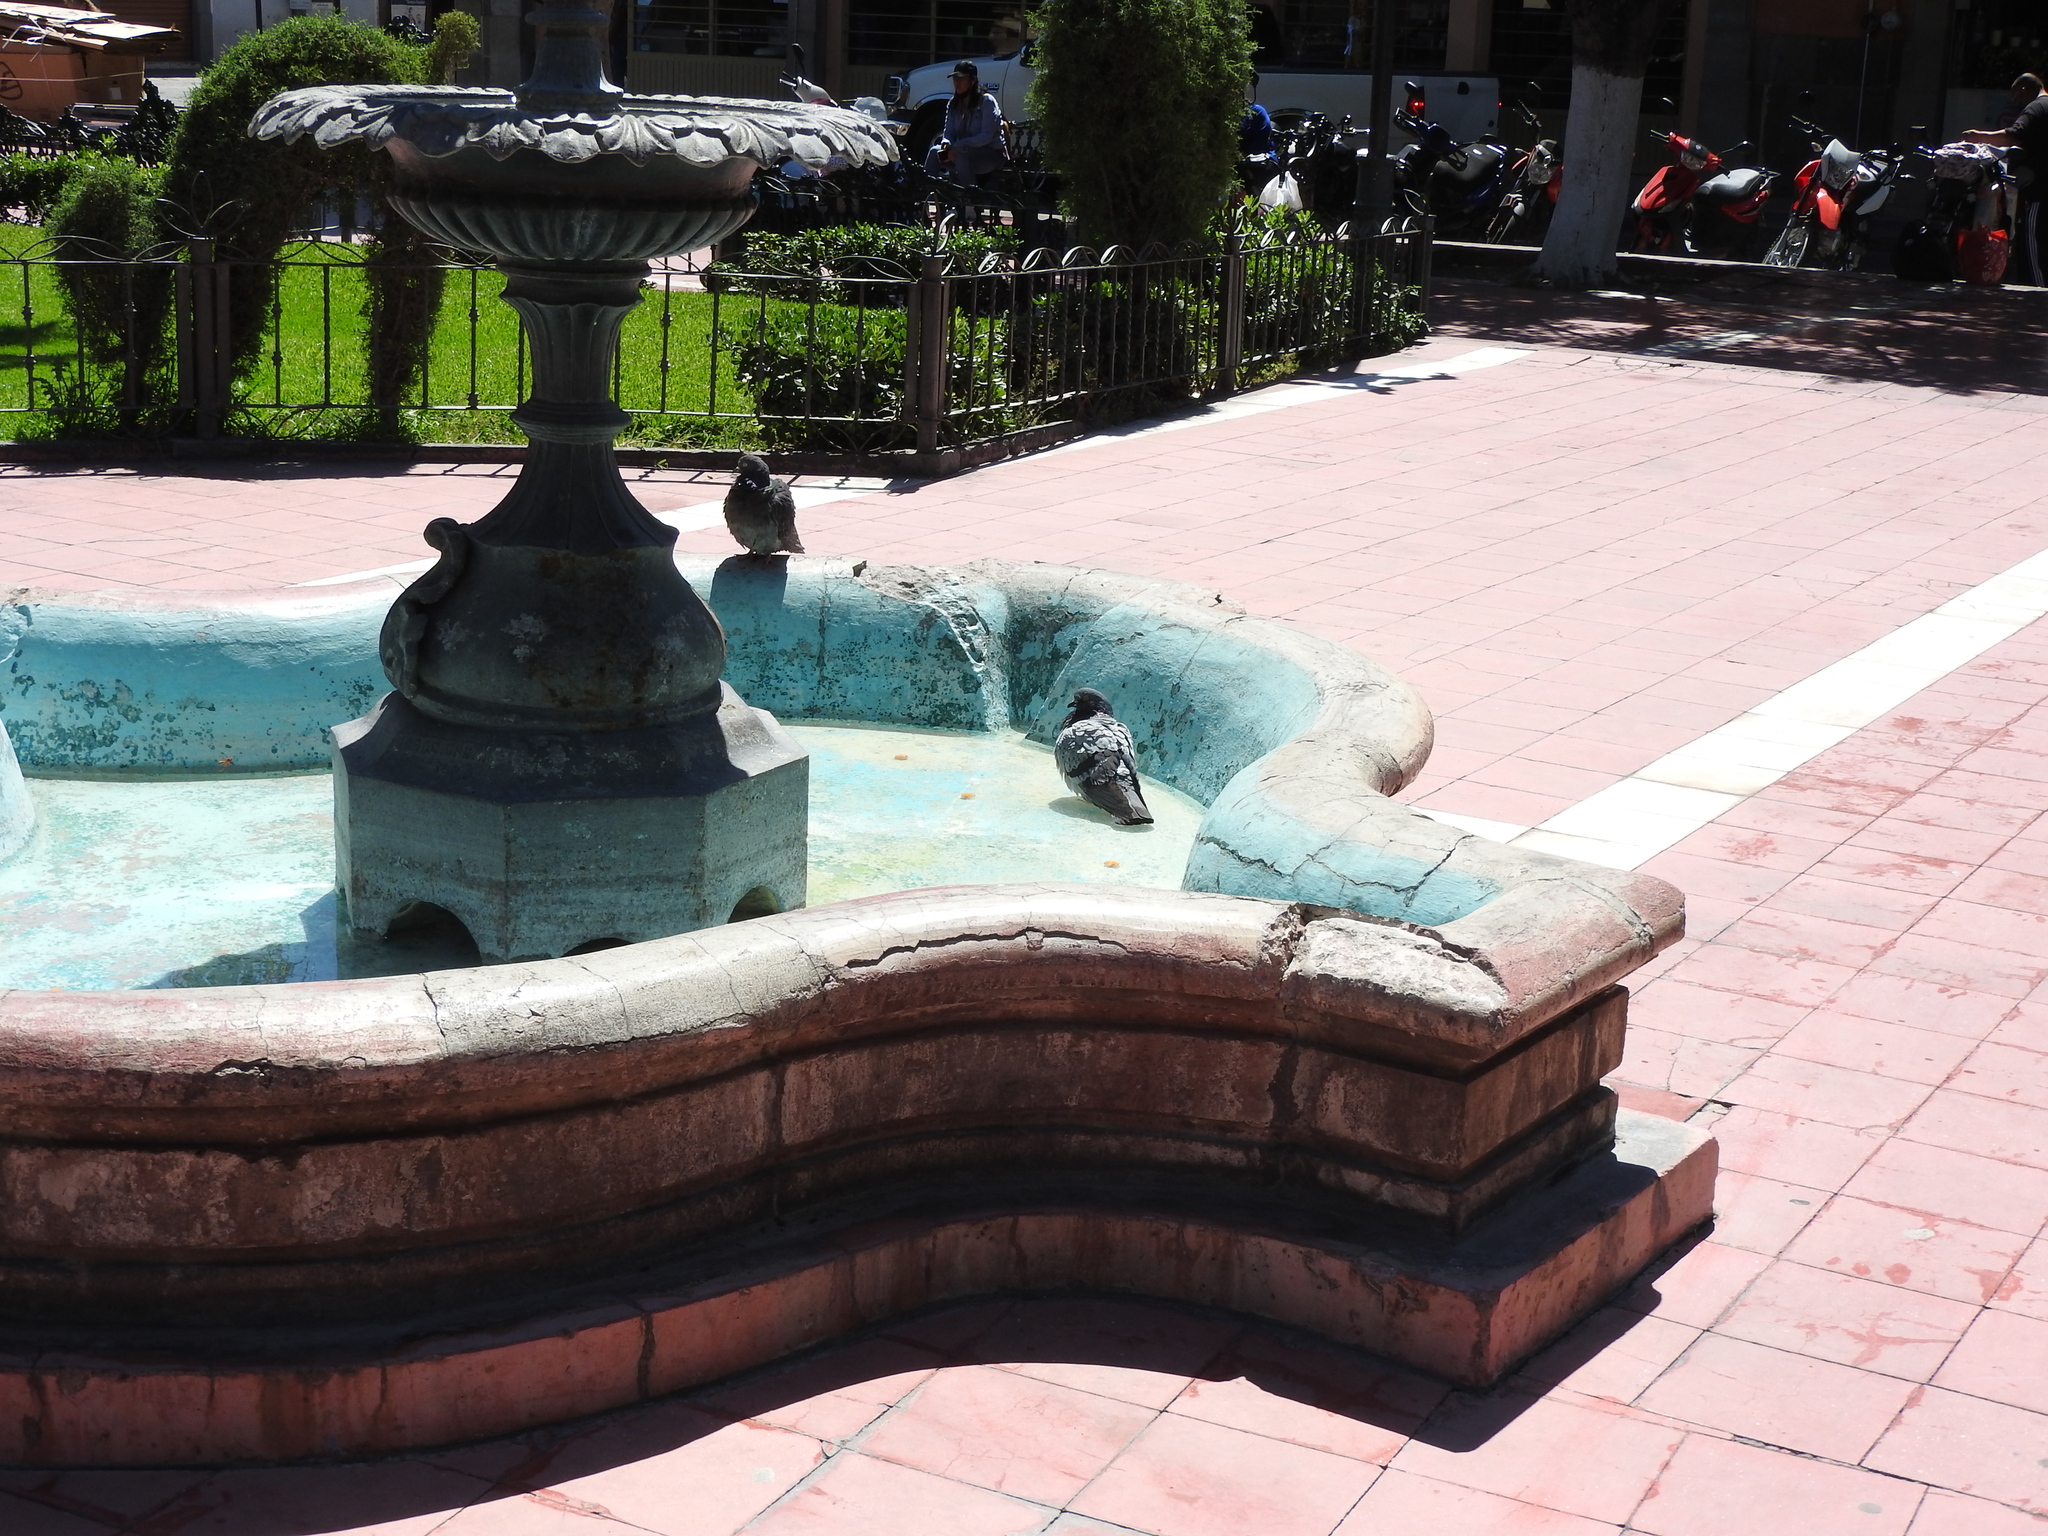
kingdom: Animalia
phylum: Chordata
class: Aves
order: Columbiformes
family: Columbidae
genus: Columba
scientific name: Columba livia
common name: Rock pigeon
